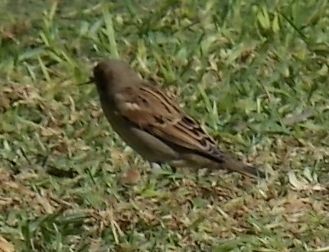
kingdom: Animalia
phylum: Chordata
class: Aves
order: Passeriformes
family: Passeridae
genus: Passer
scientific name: Passer domesticus
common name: House sparrow
